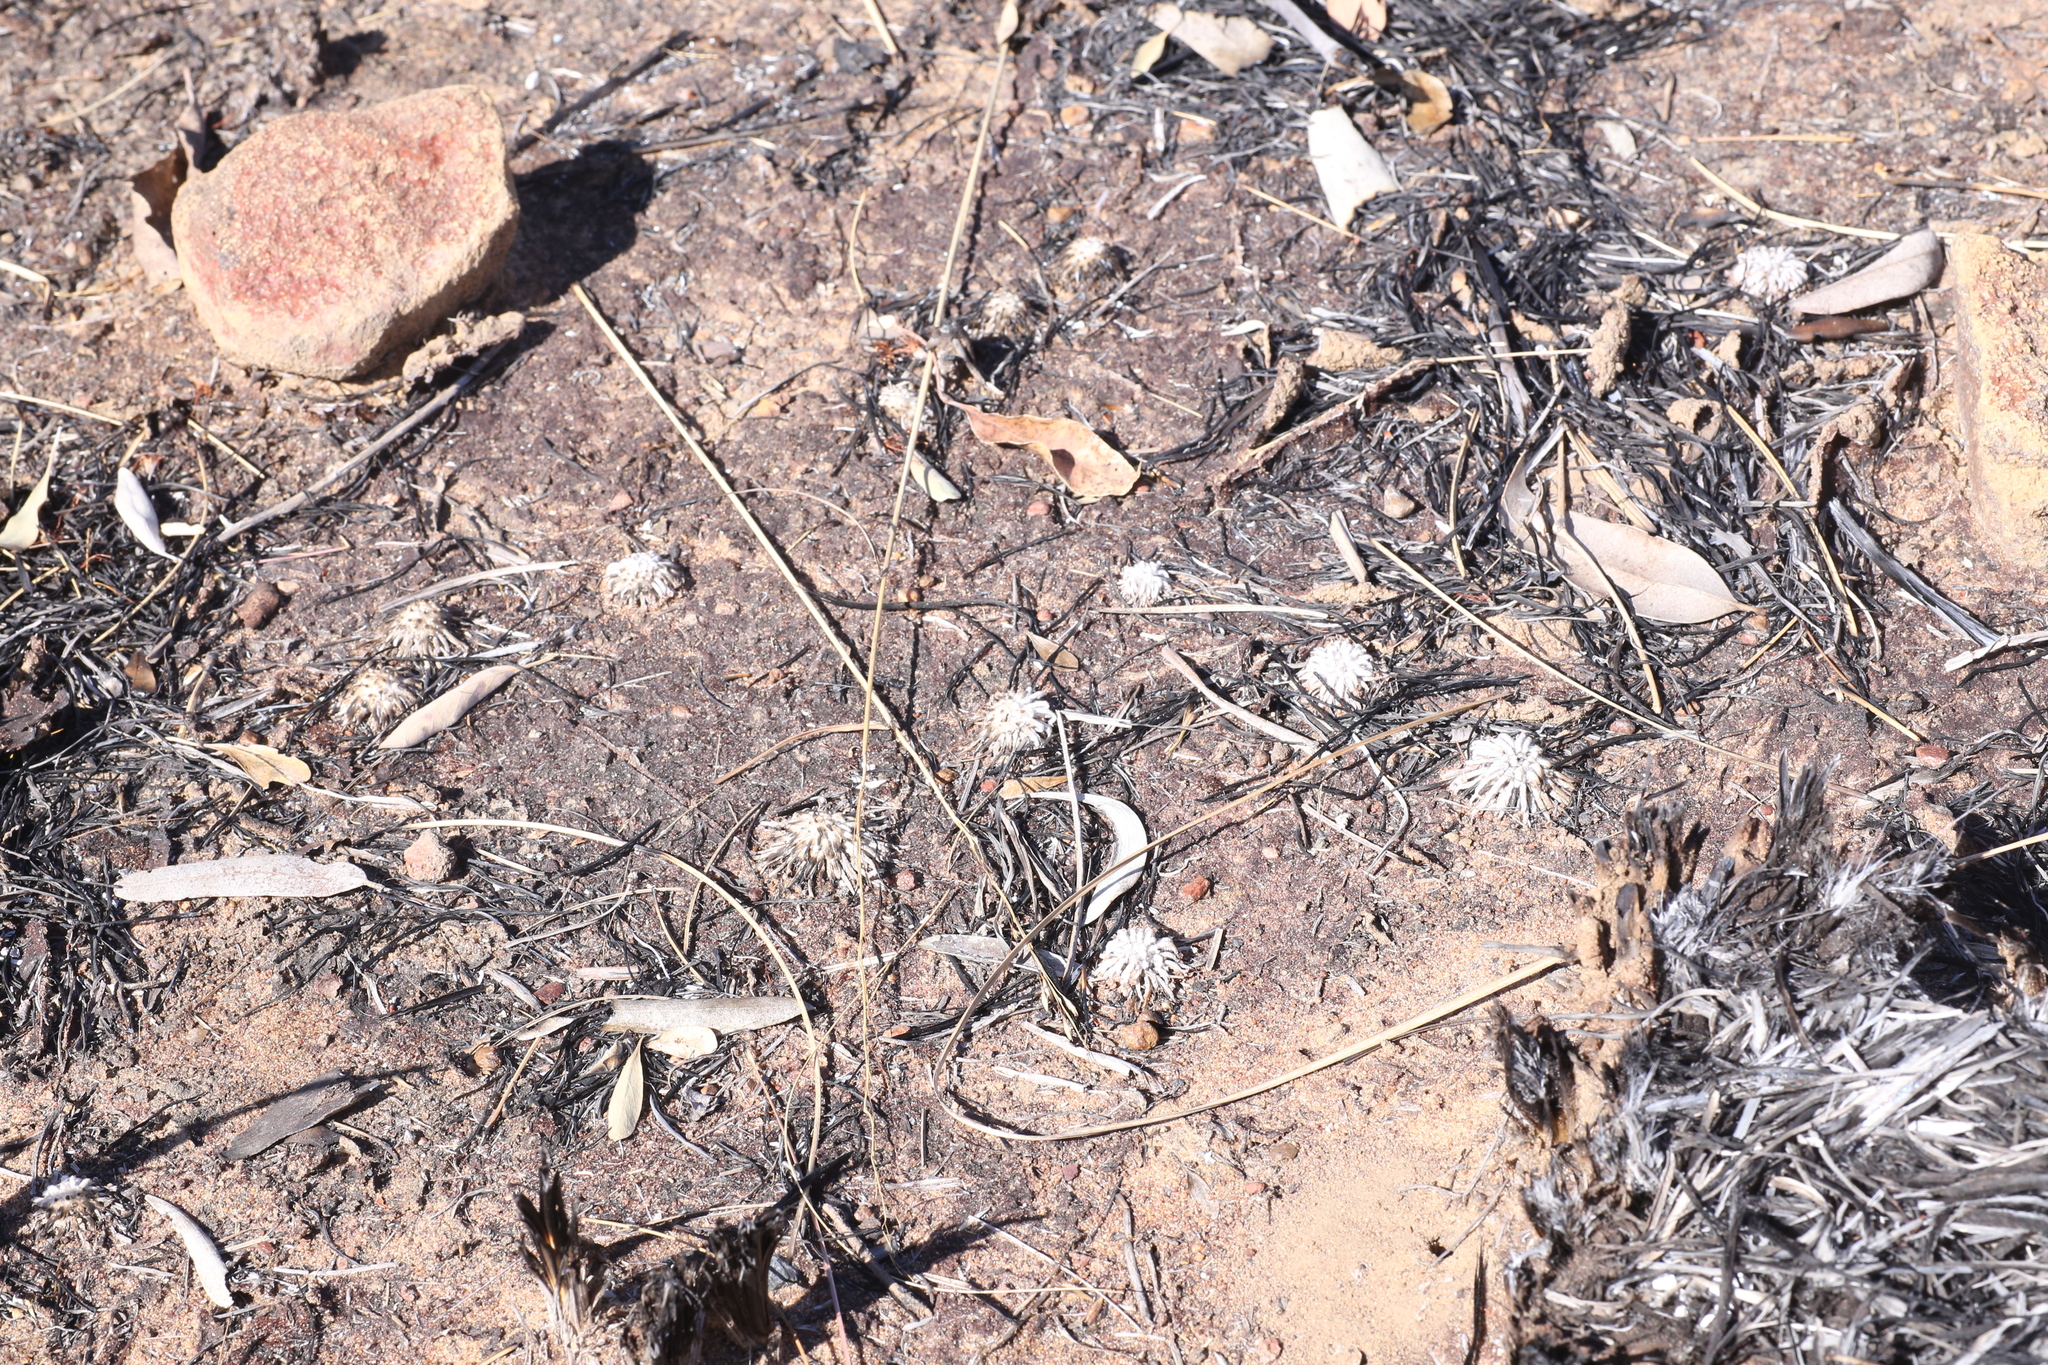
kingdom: Plantae
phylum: Tracheophyta
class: Magnoliopsida
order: Caryophyllales
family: Droseraceae
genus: Drosera
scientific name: Drosera derbyensis
